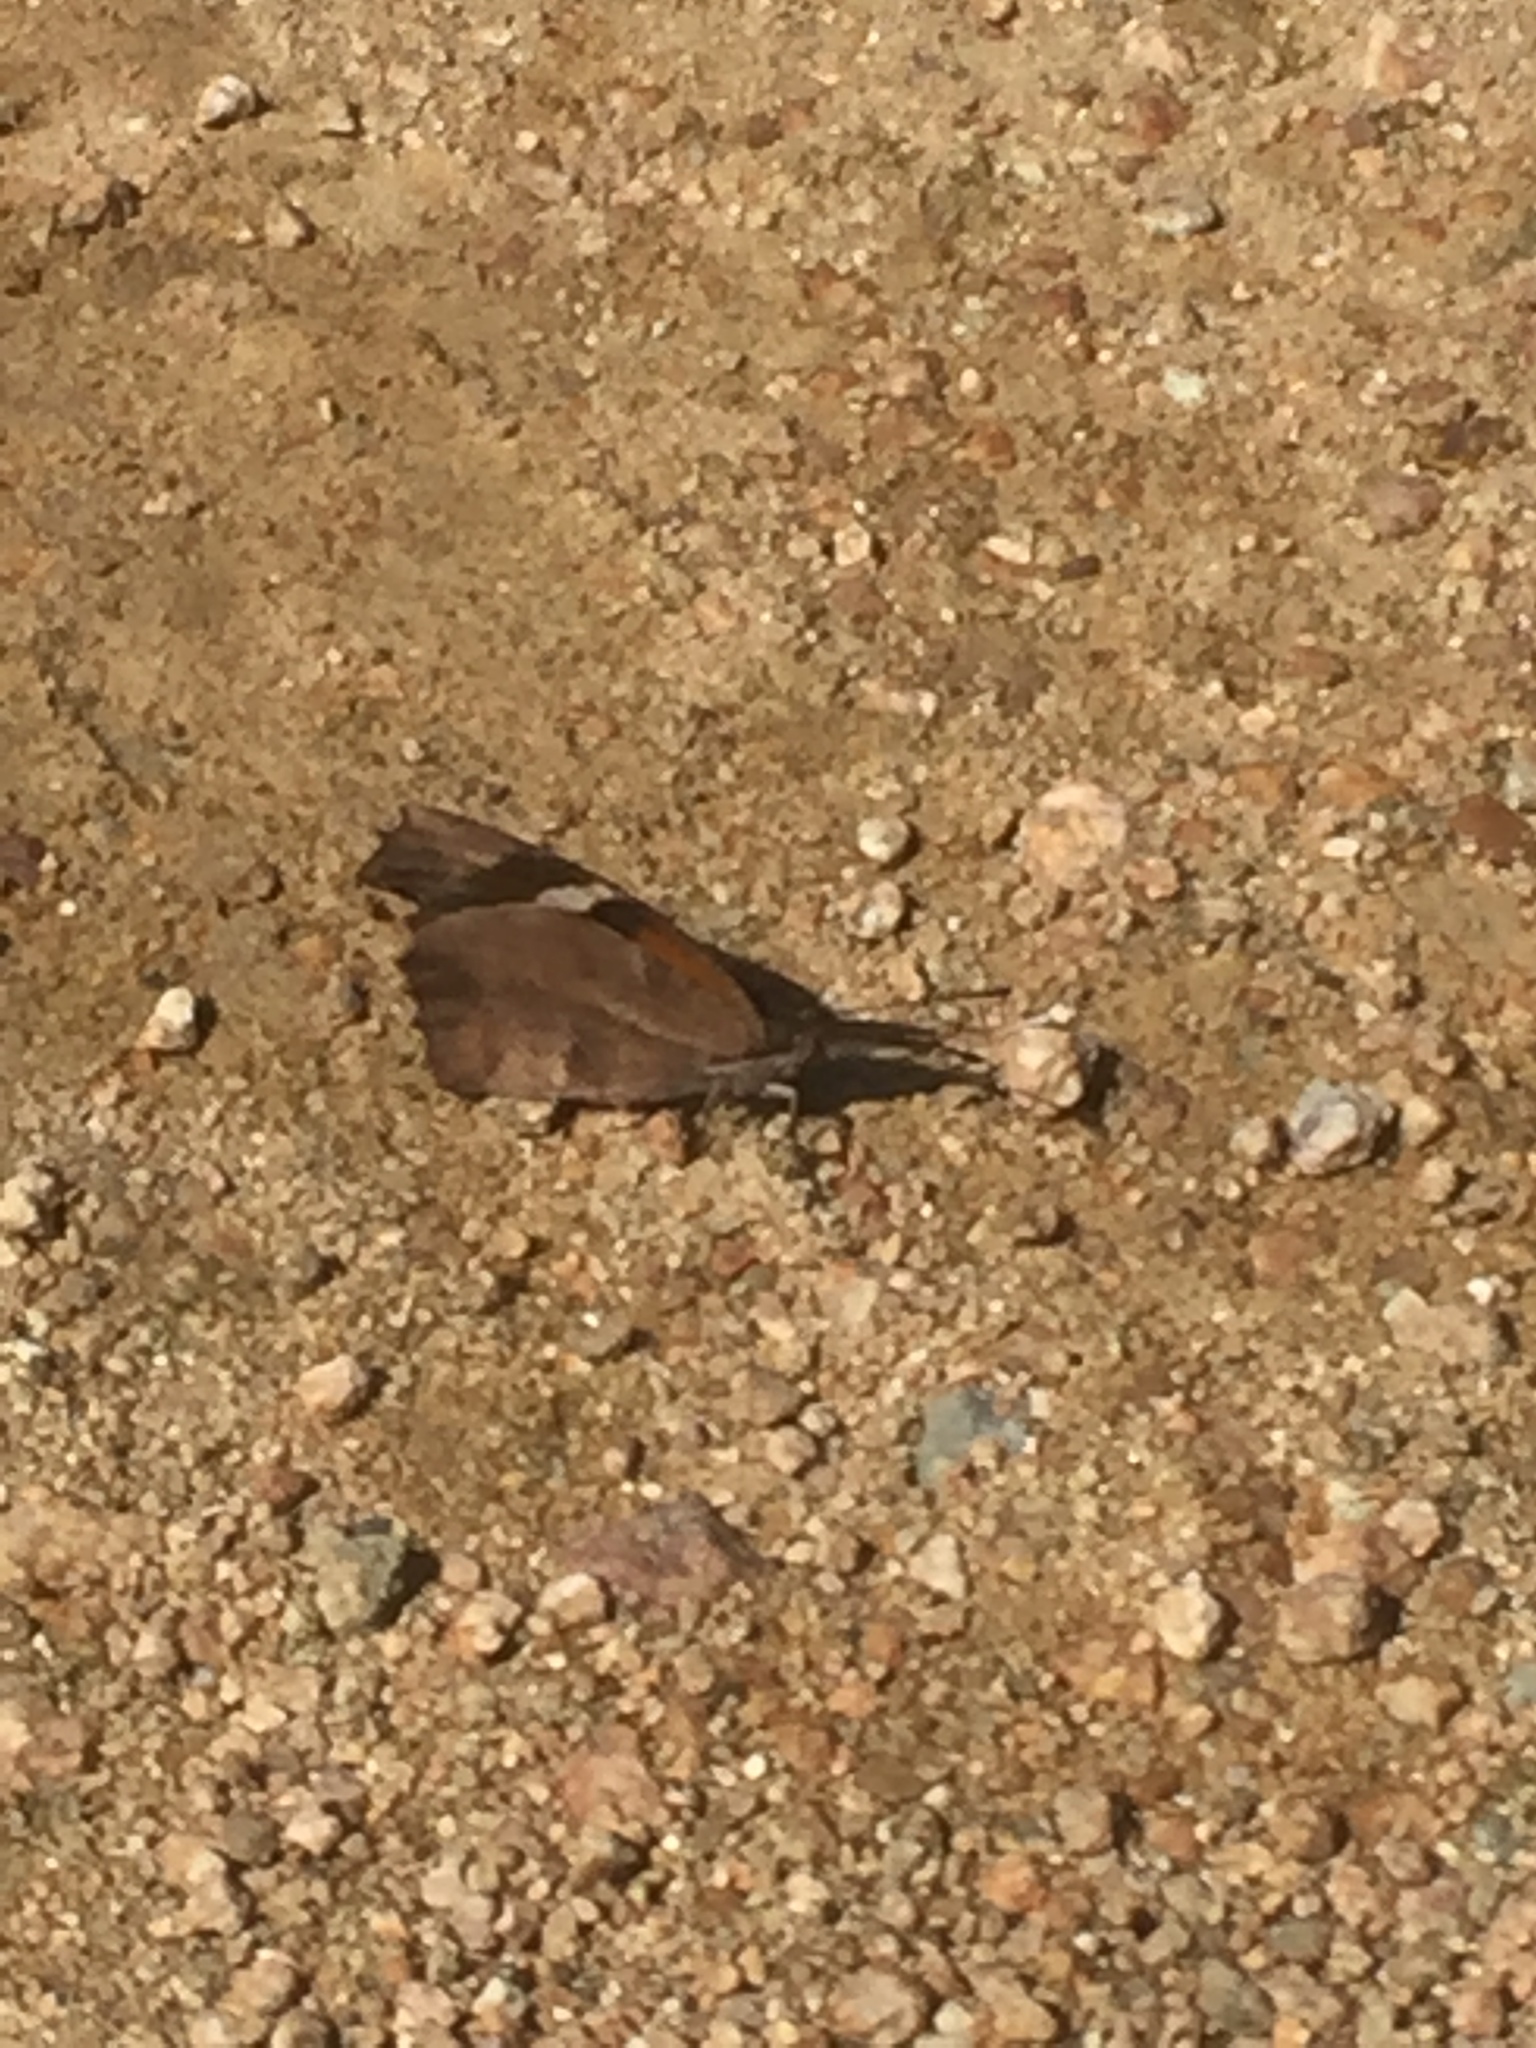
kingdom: Animalia
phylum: Arthropoda
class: Insecta
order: Lepidoptera
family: Nymphalidae
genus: Libytheana
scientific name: Libytheana carinenta
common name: American snout
